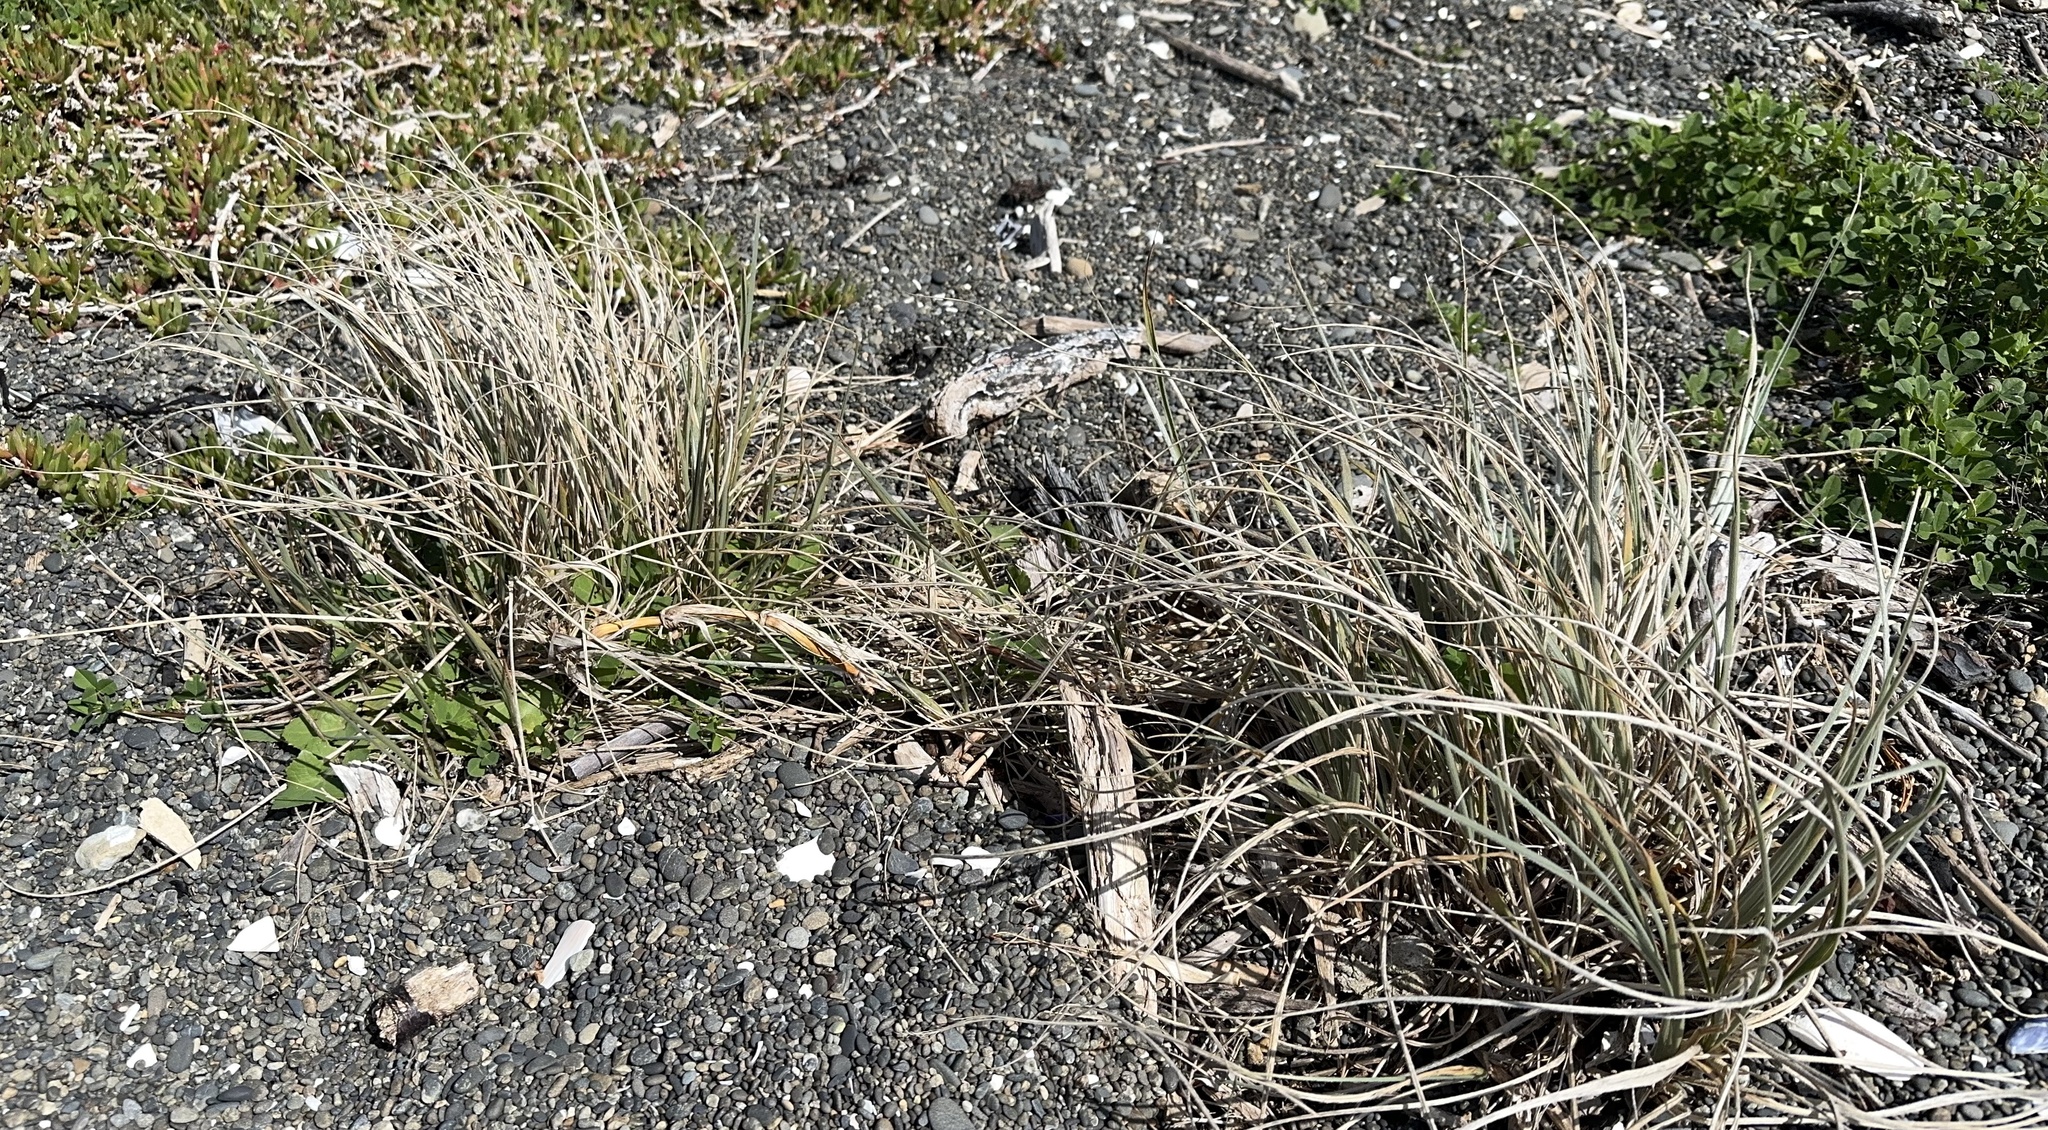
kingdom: Plantae
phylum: Tracheophyta
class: Liliopsida
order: Poales
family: Poaceae
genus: Spinifex
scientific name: Spinifex sericeus
